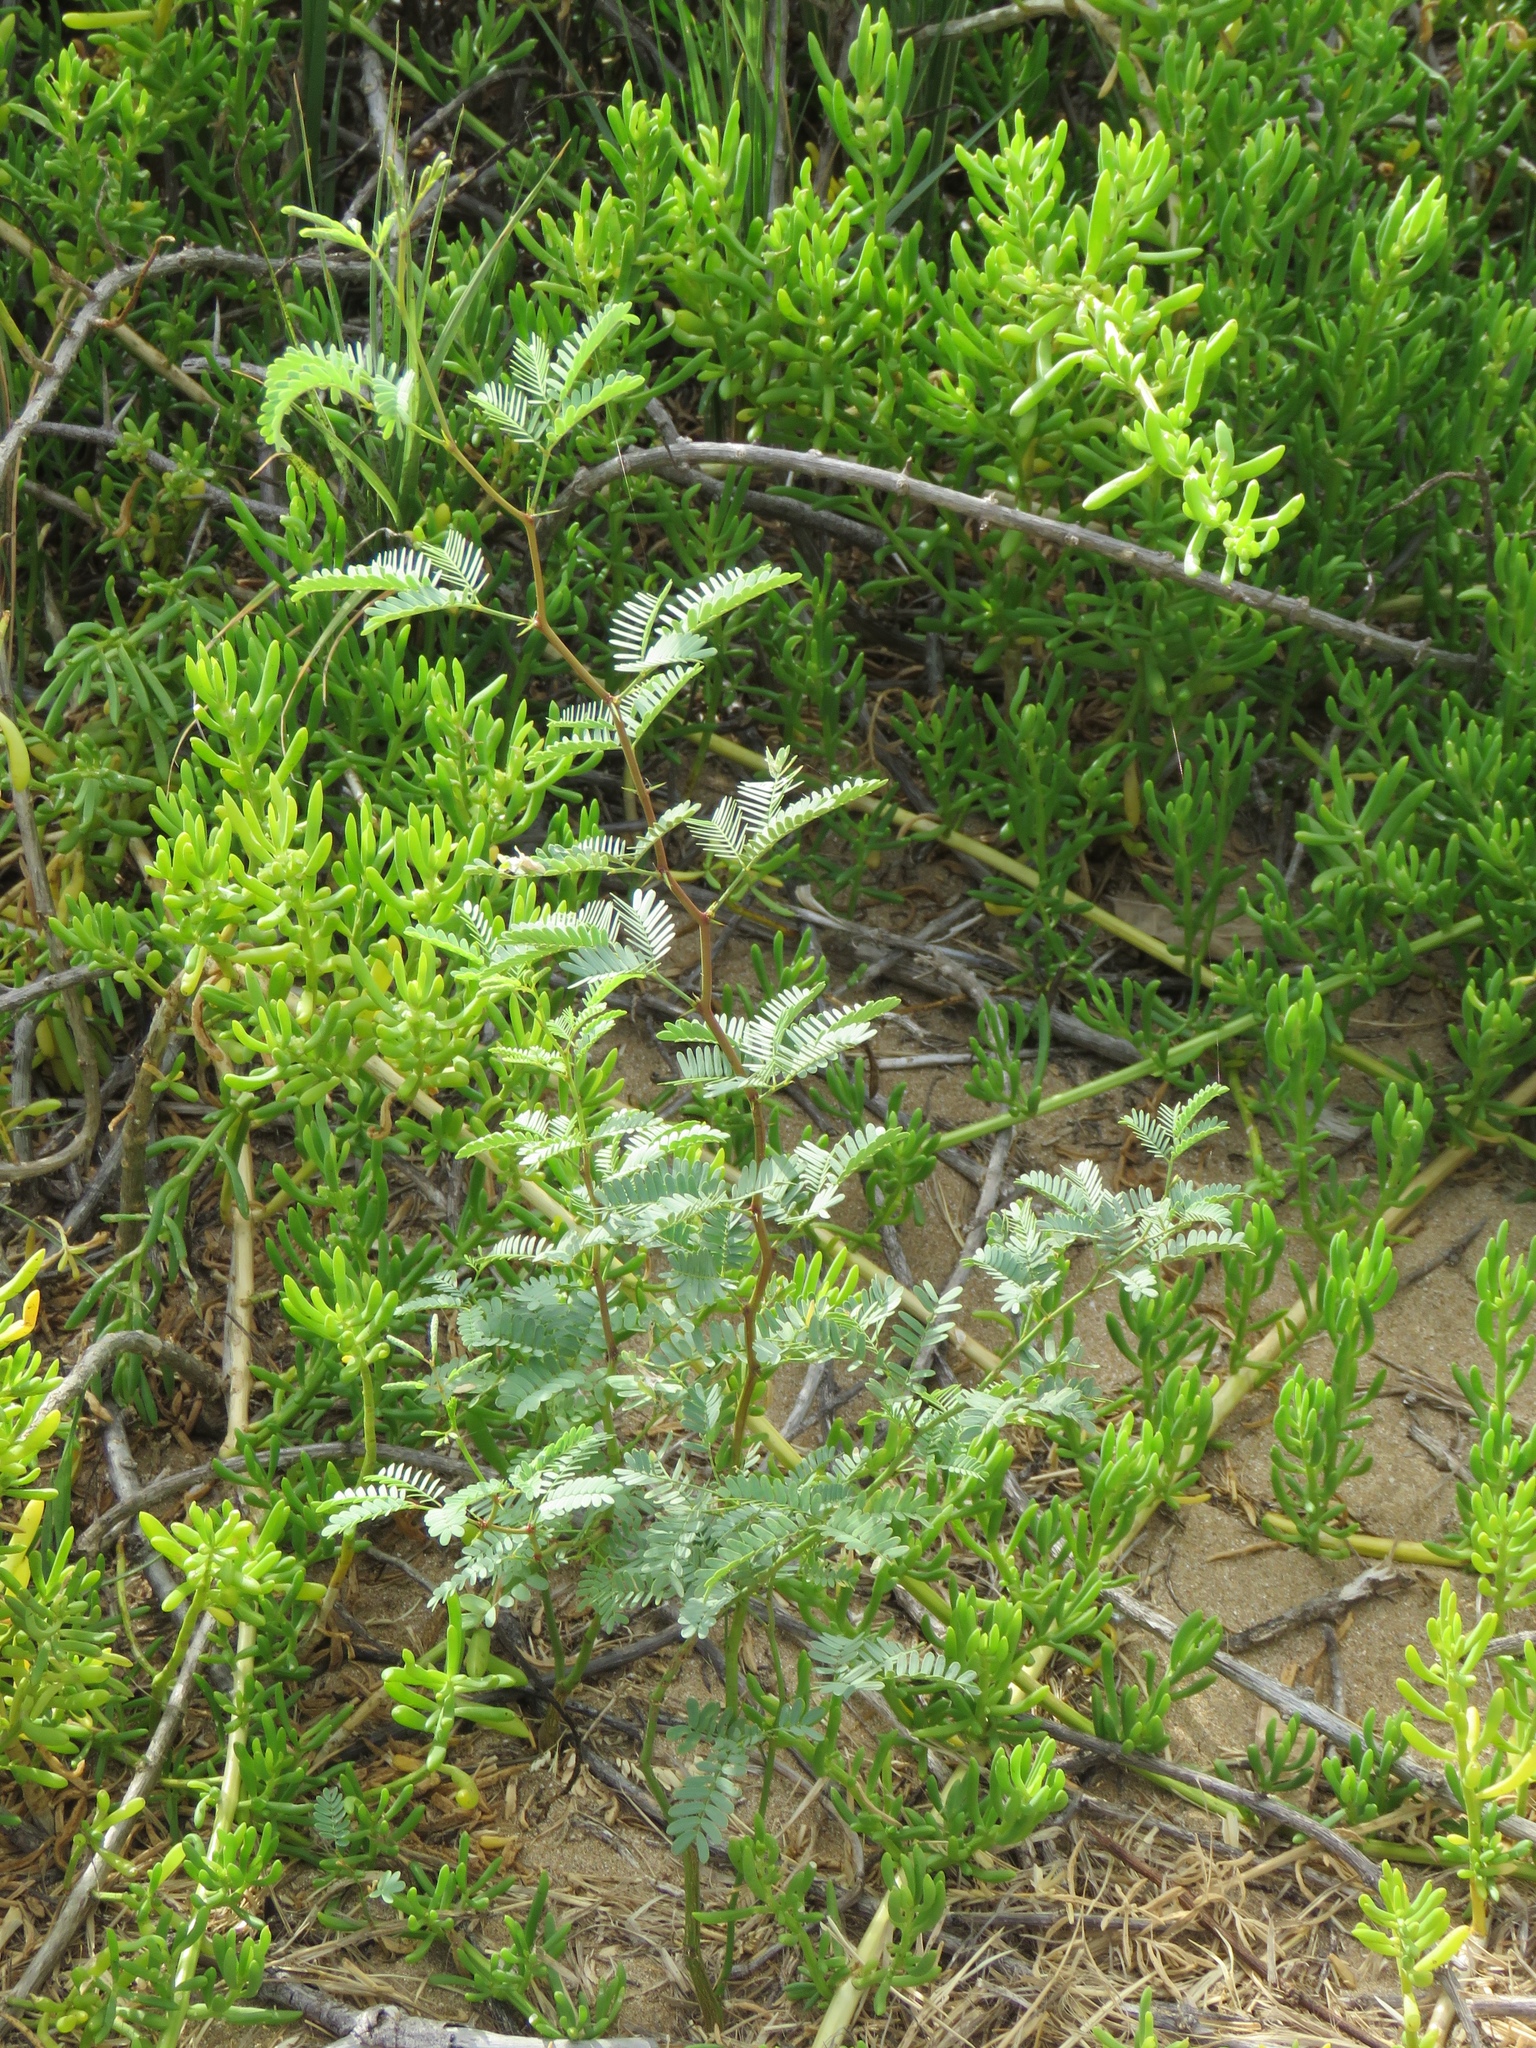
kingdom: Plantae
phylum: Tracheophyta
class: Magnoliopsida
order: Fabales
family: Fabaceae
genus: Prosopis
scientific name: Prosopis pallida
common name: Mesquite
